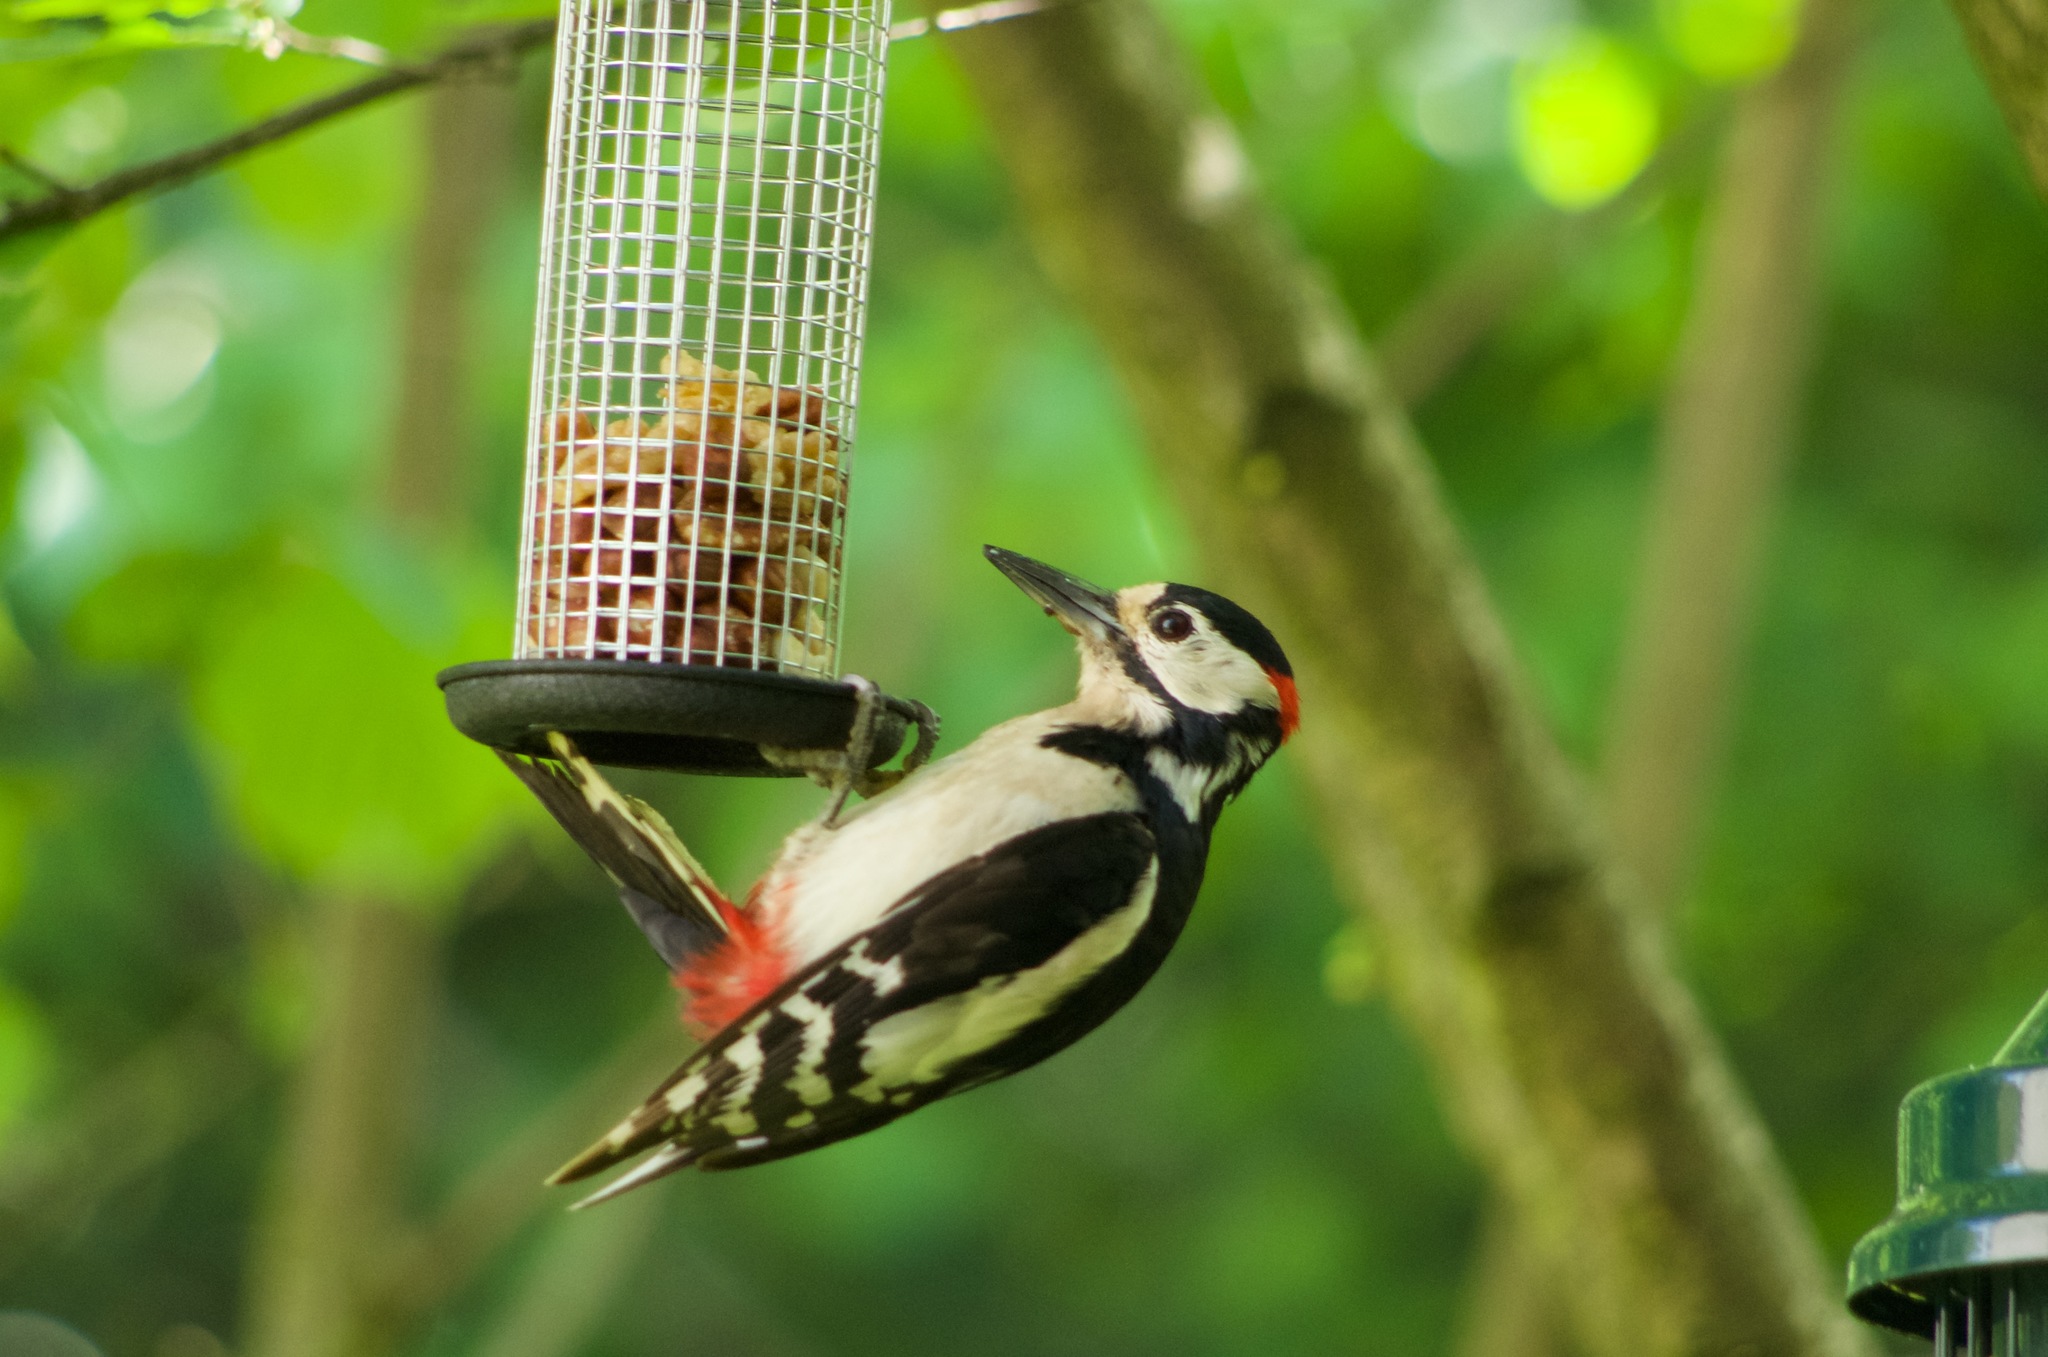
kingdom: Animalia
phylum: Chordata
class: Aves
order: Piciformes
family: Picidae
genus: Dendrocopos
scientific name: Dendrocopos major
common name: Great spotted woodpecker
